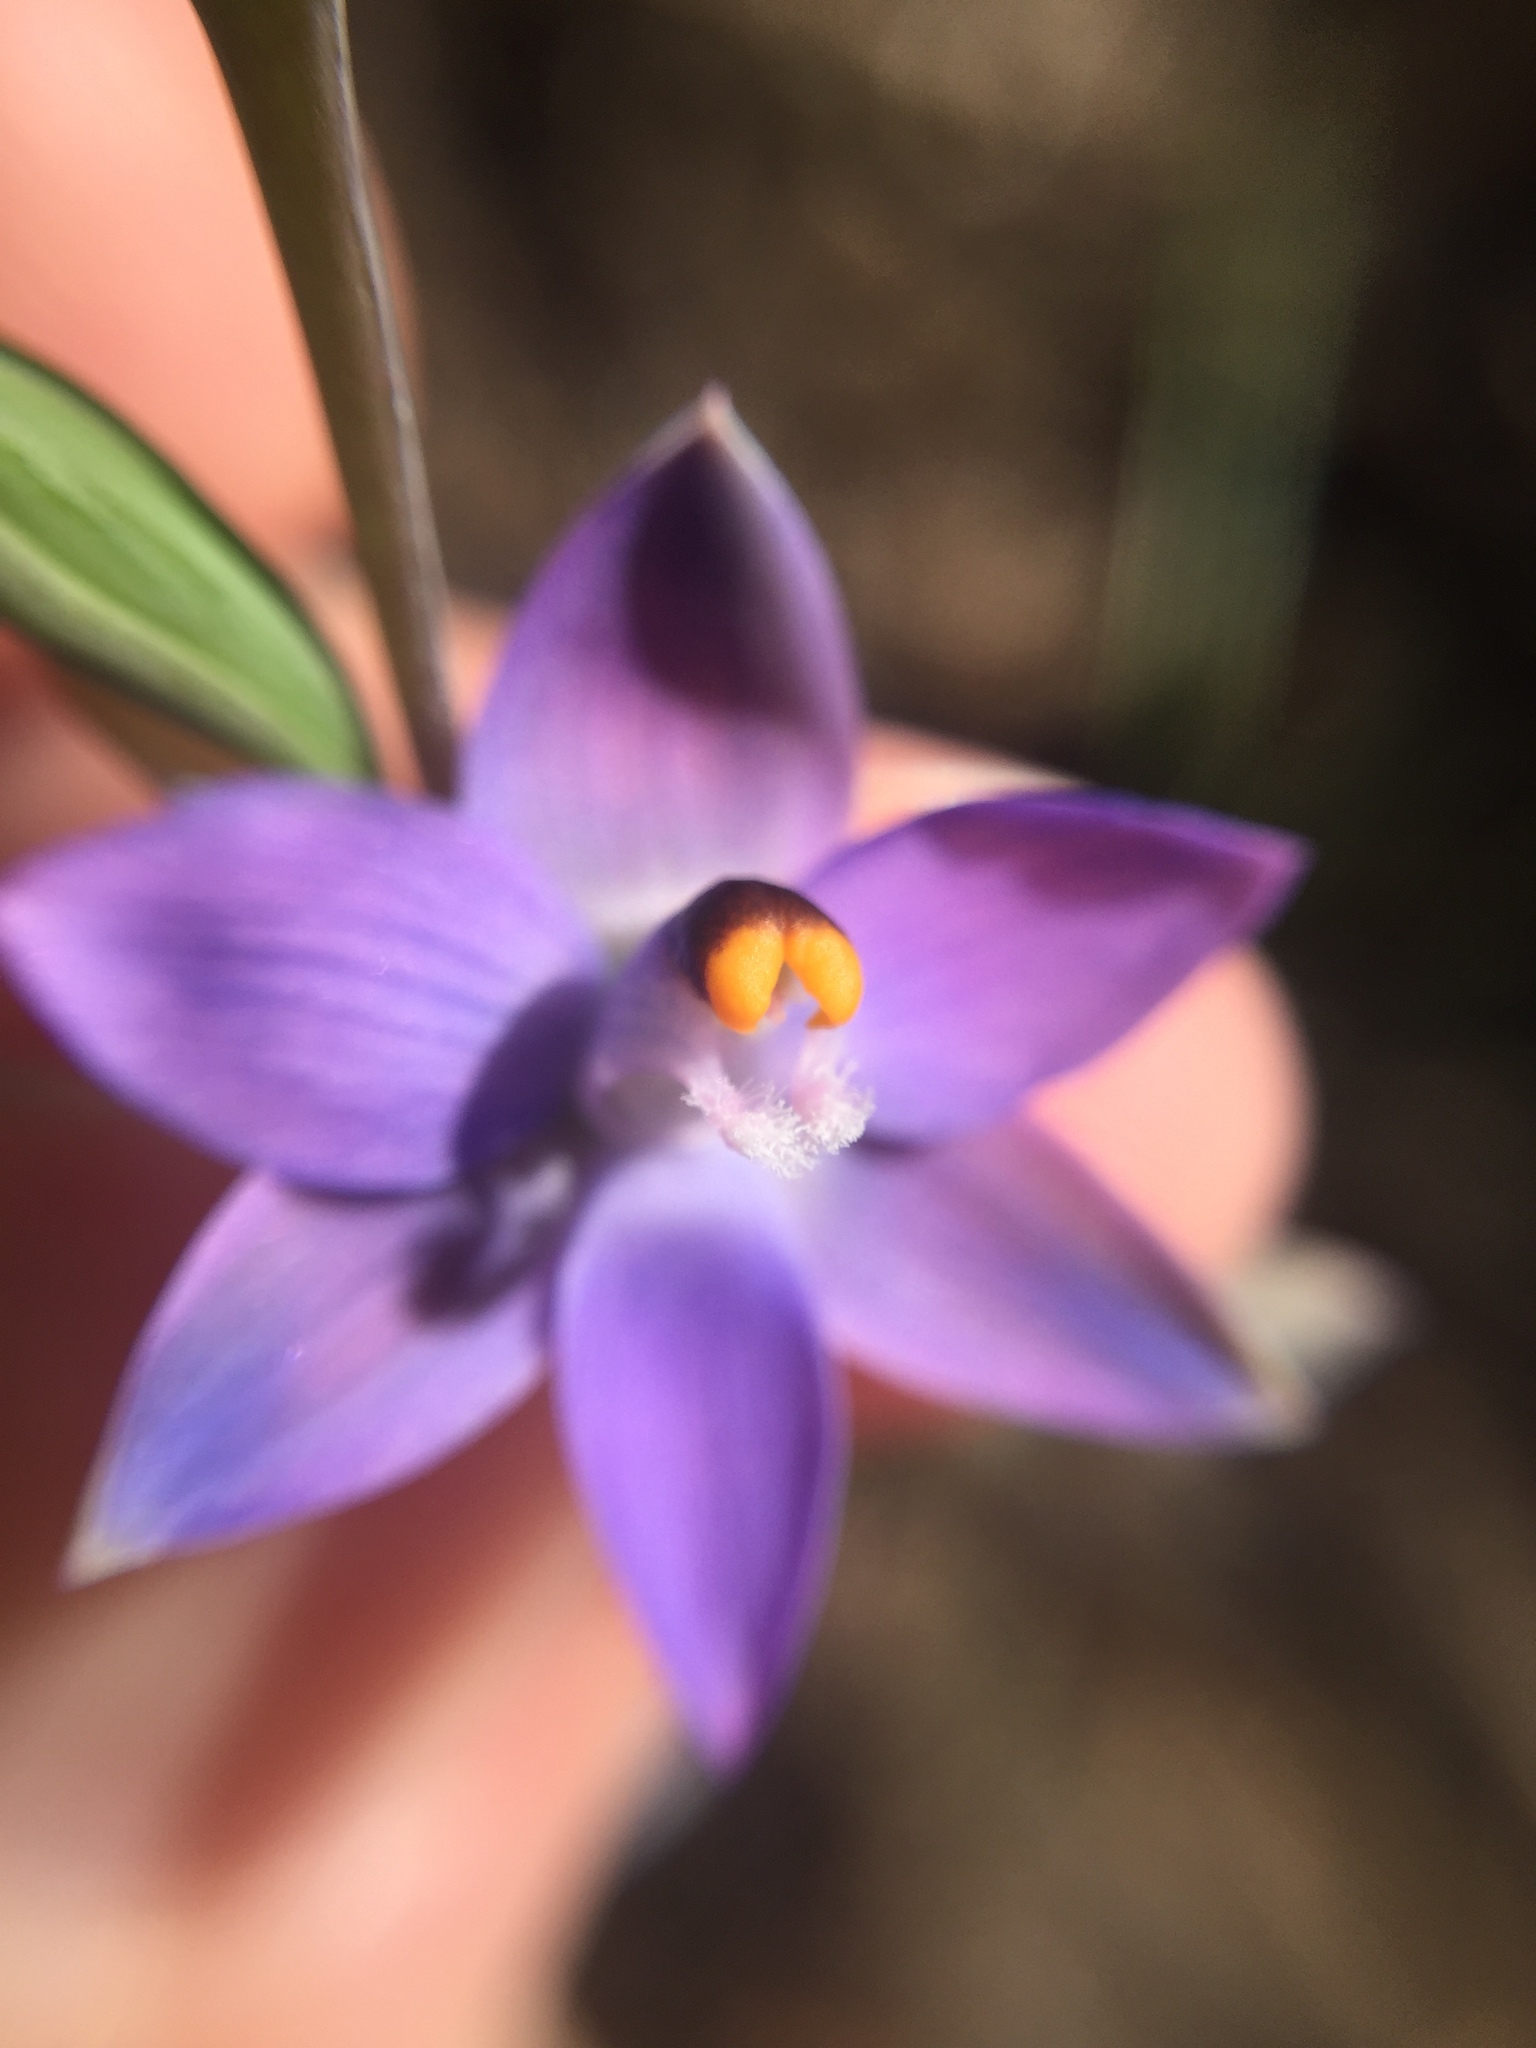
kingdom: Plantae
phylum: Tracheophyta
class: Liliopsida
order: Asparagales
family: Orchidaceae
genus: Thelymitra
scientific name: Thelymitra pauciflora
